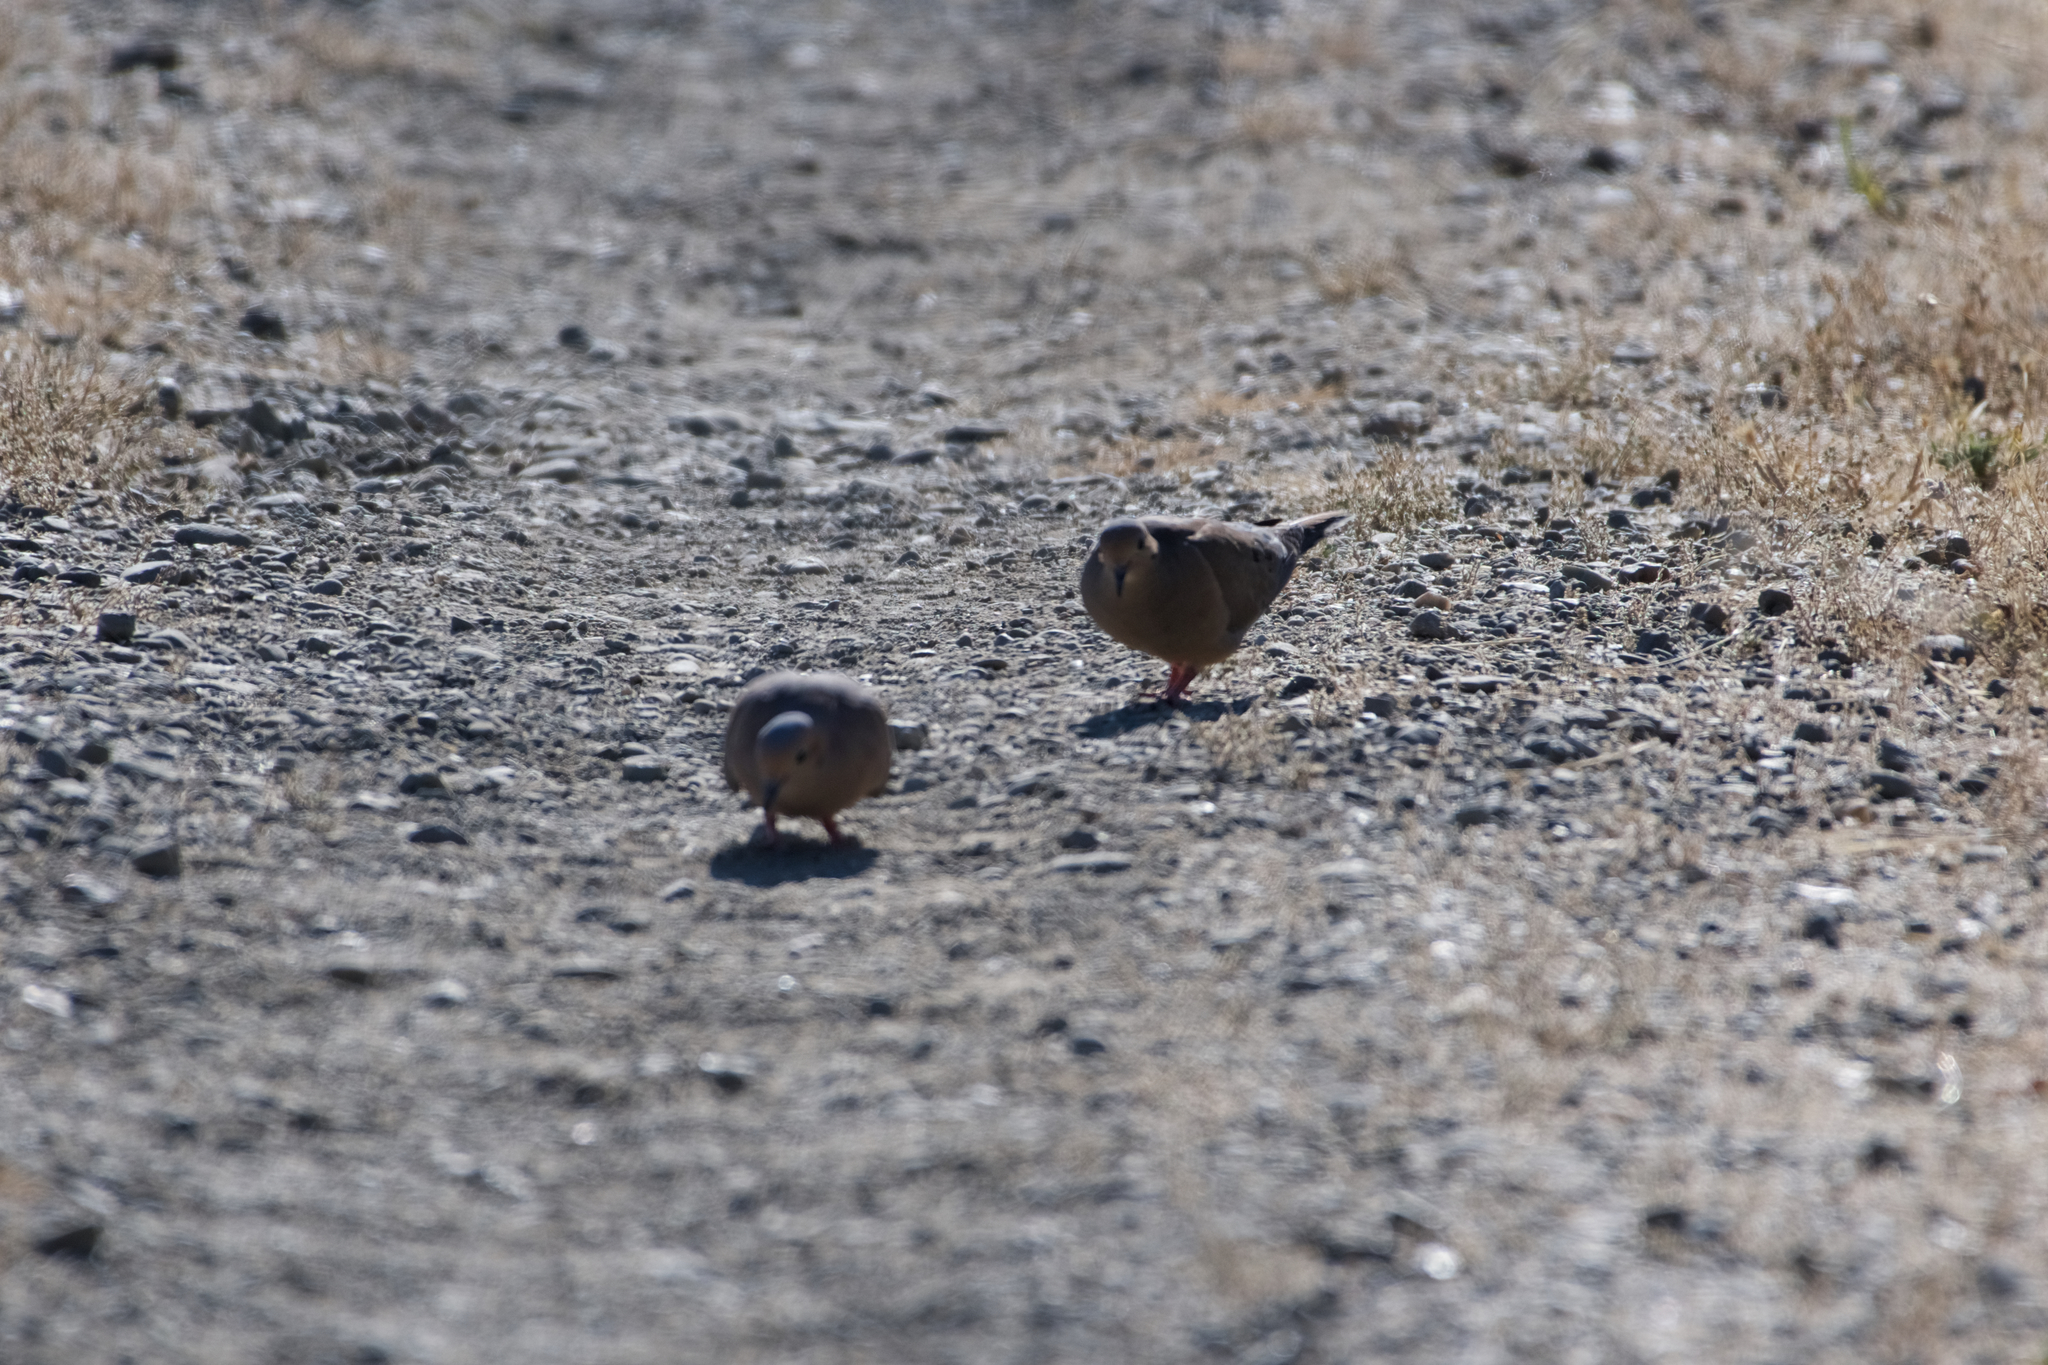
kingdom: Animalia
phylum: Chordata
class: Aves
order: Columbiformes
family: Columbidae
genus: Zenaida
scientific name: Zenaida macroura
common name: Mourning dove
